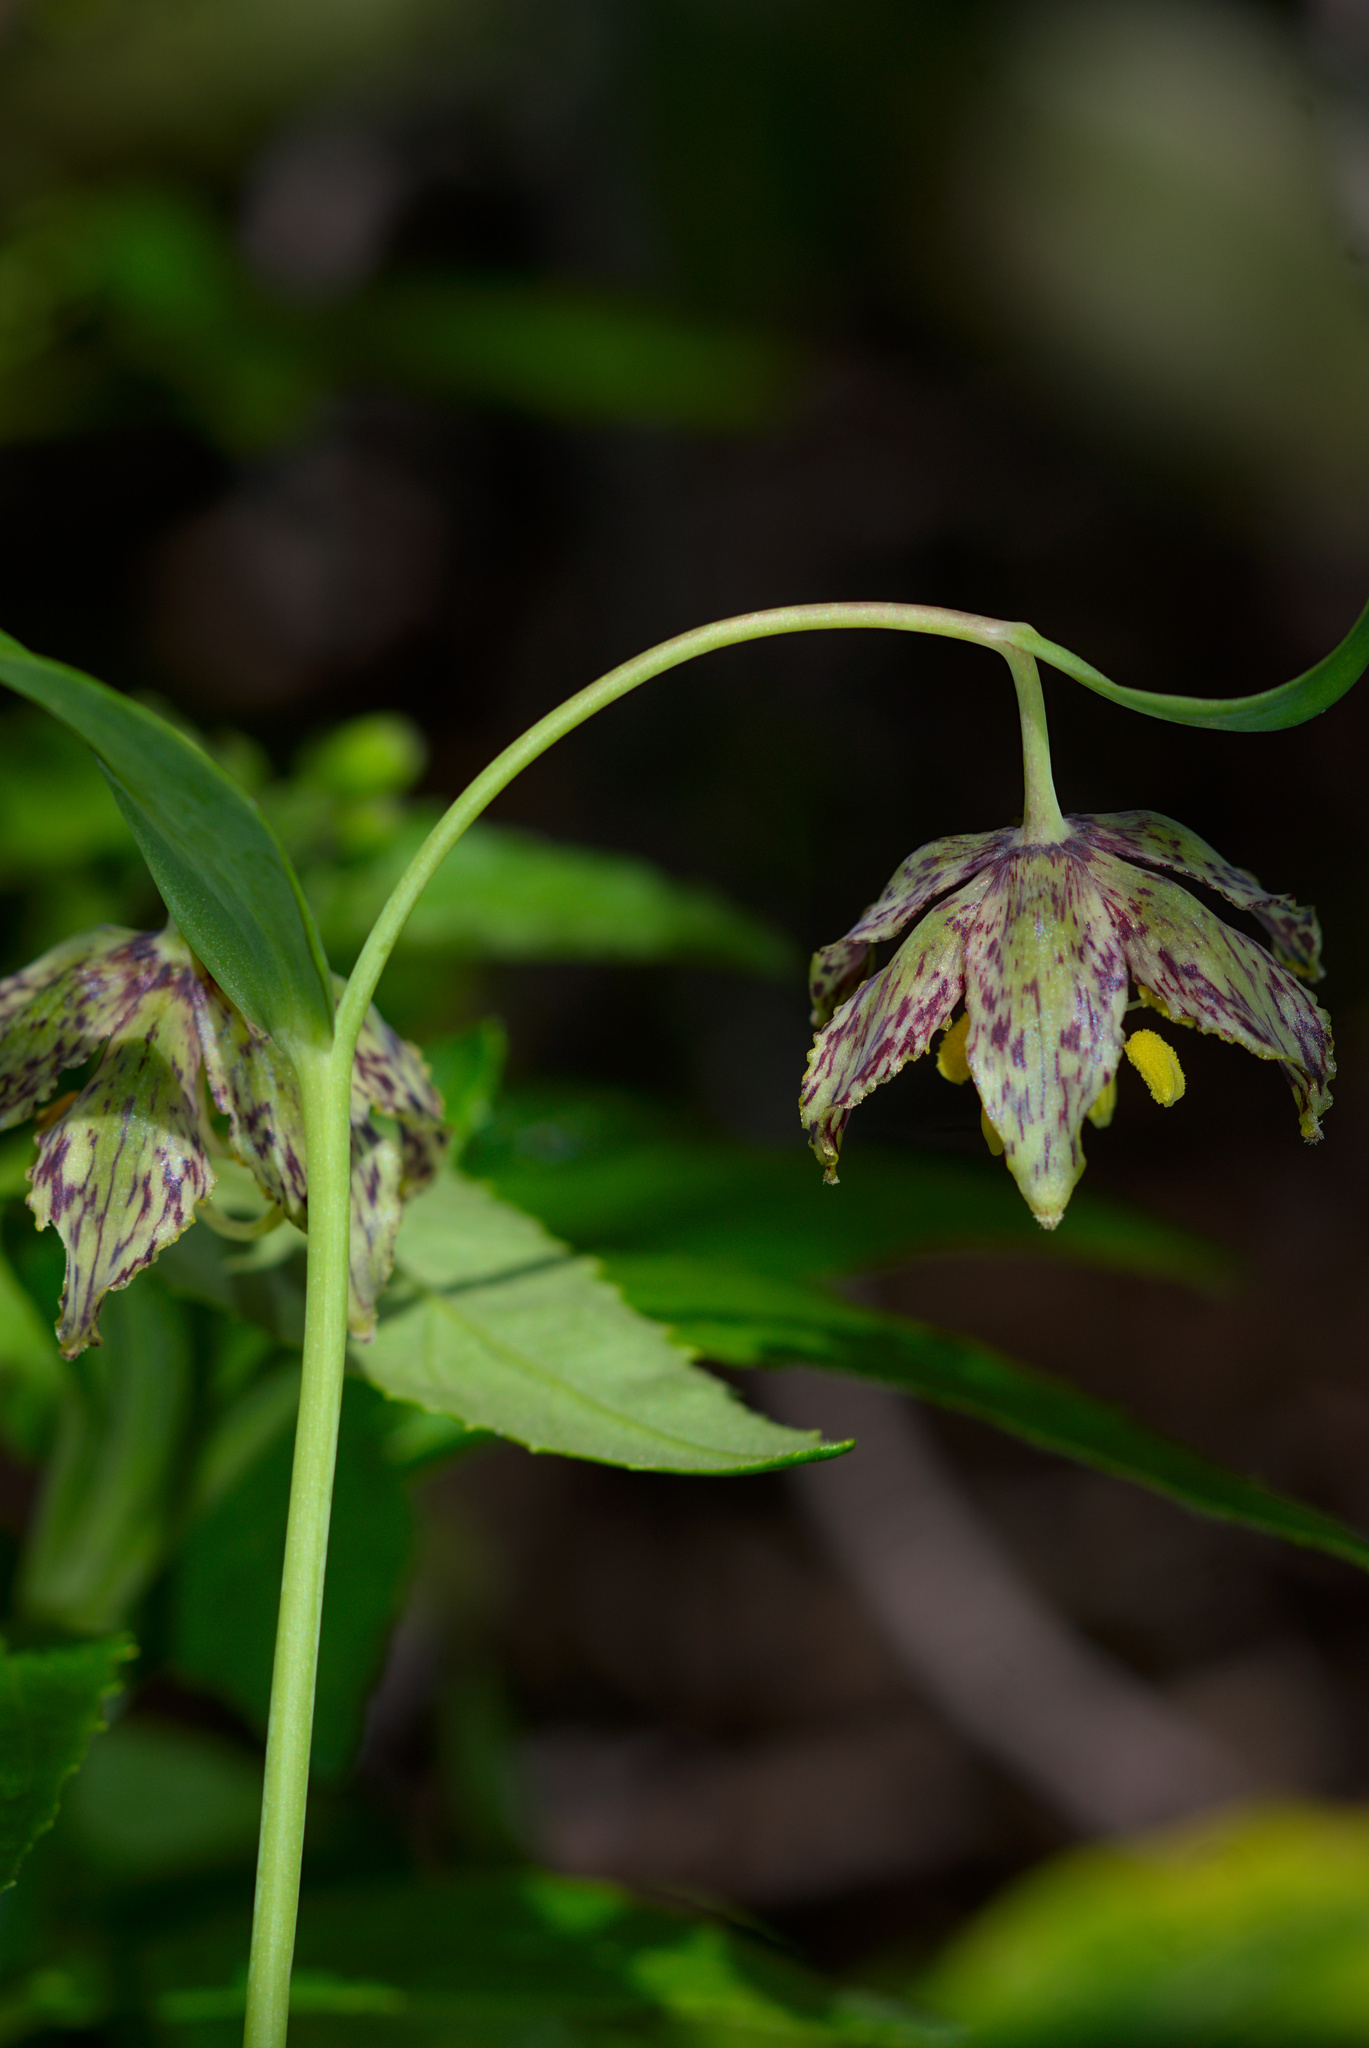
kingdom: Plantae
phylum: Tracheophyta
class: Liliopsida
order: Liliales
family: Liliaceae
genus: Fritillaria
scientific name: Fritillaria affinis
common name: Ojai fritillary
